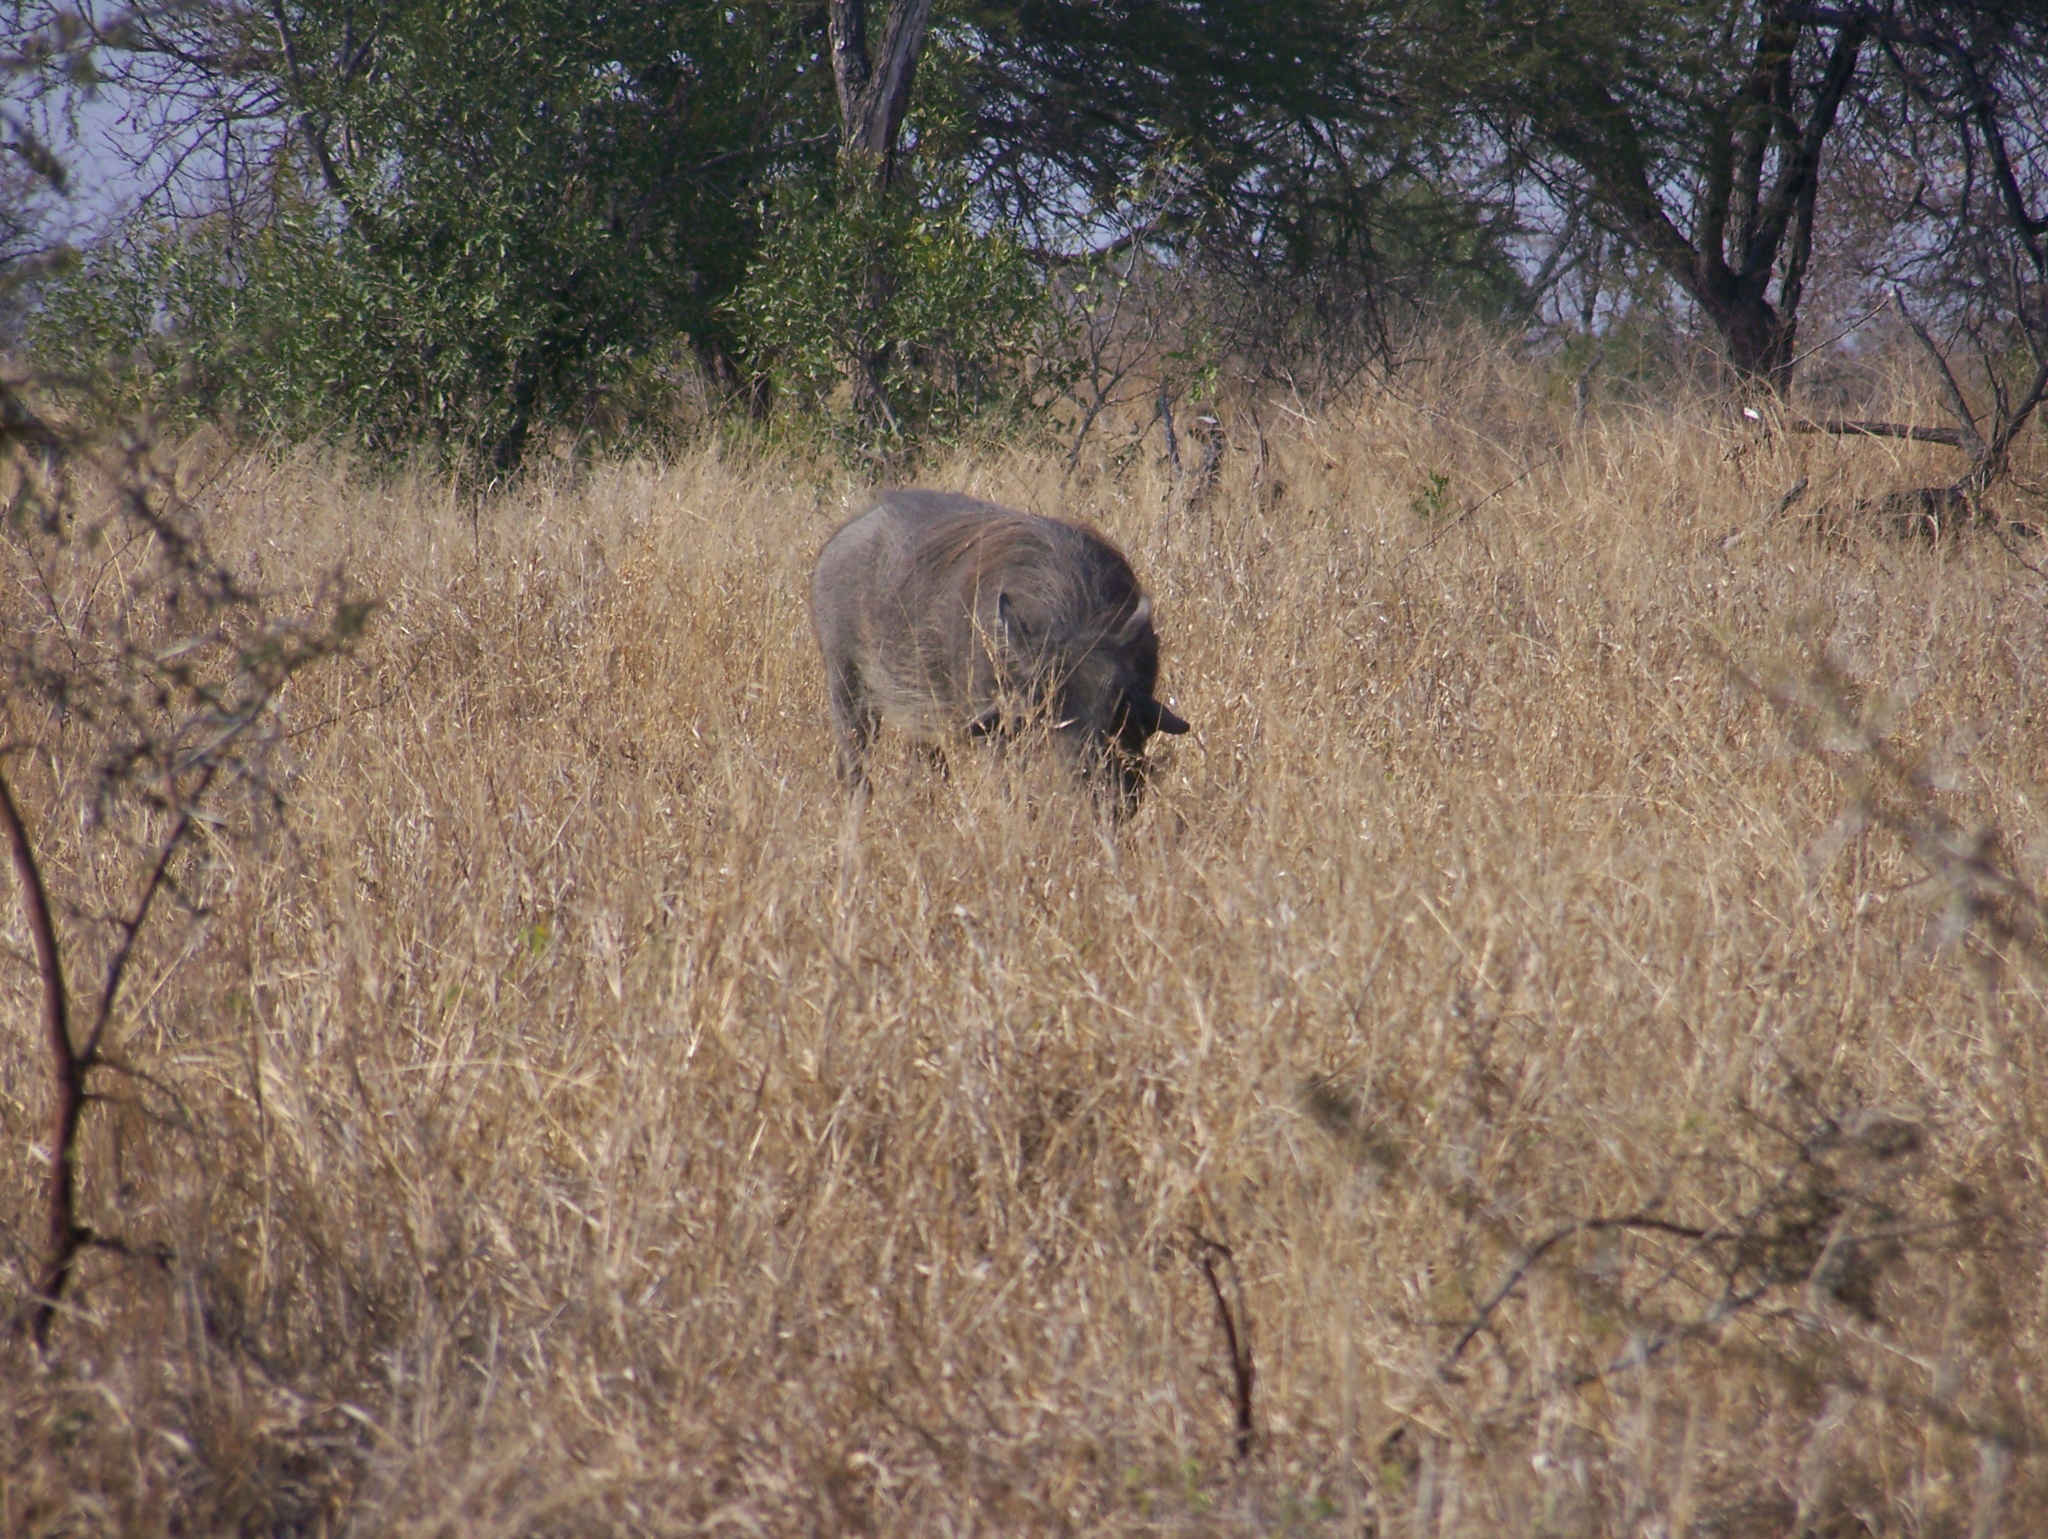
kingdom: Animalia
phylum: Chordata
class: Mammalia
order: Artiodactyla
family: Suidae
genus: Phacochoerus
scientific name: Phacochoerus africanus
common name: Common warthog
